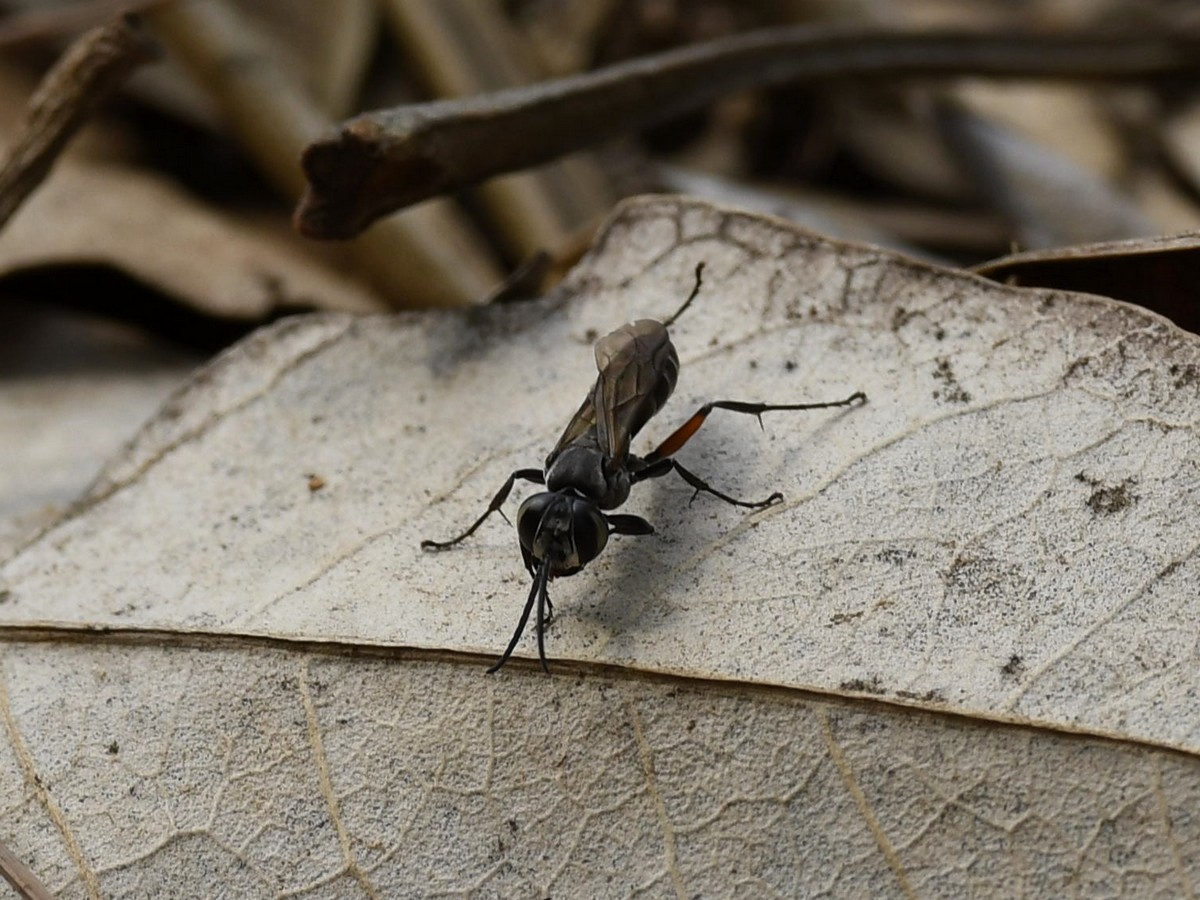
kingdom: Animalia
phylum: Arthropoda
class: Insecta
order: Hymenoptera
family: Crabronidae
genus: Liris
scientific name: Liris subtessellatus
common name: Crabronid wasp
